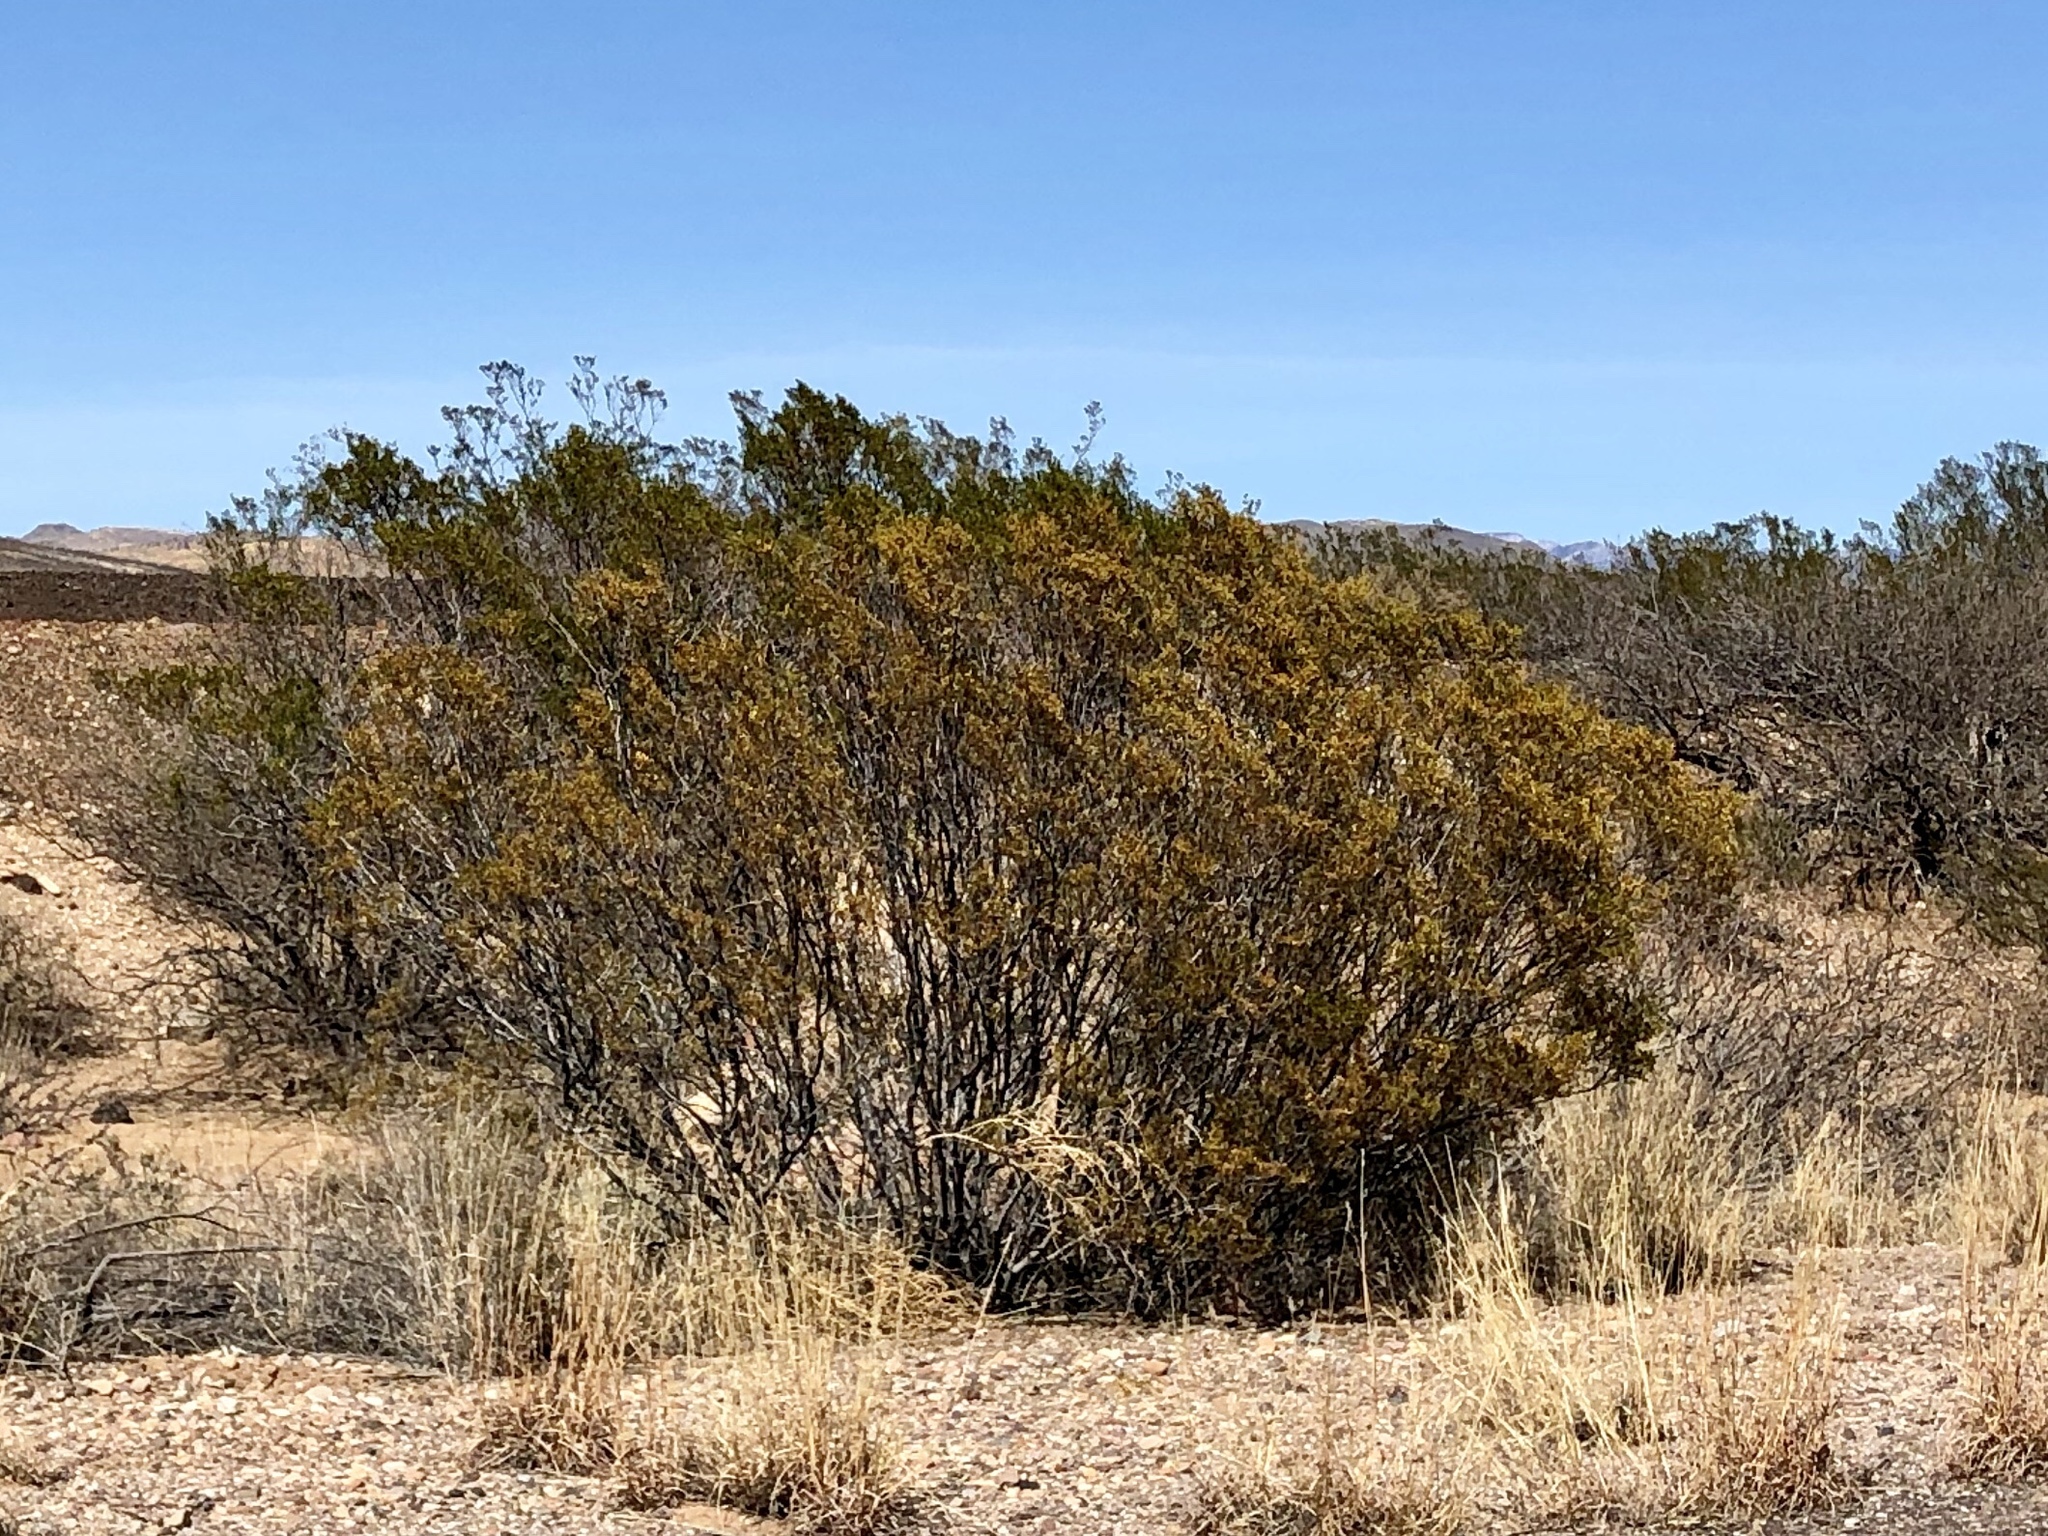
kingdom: Plantae
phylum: Tracheophyta
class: Magnoliopsida
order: Zygophyllales
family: Zygophyllaceae
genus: Larrea
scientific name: Larrea tridentata
